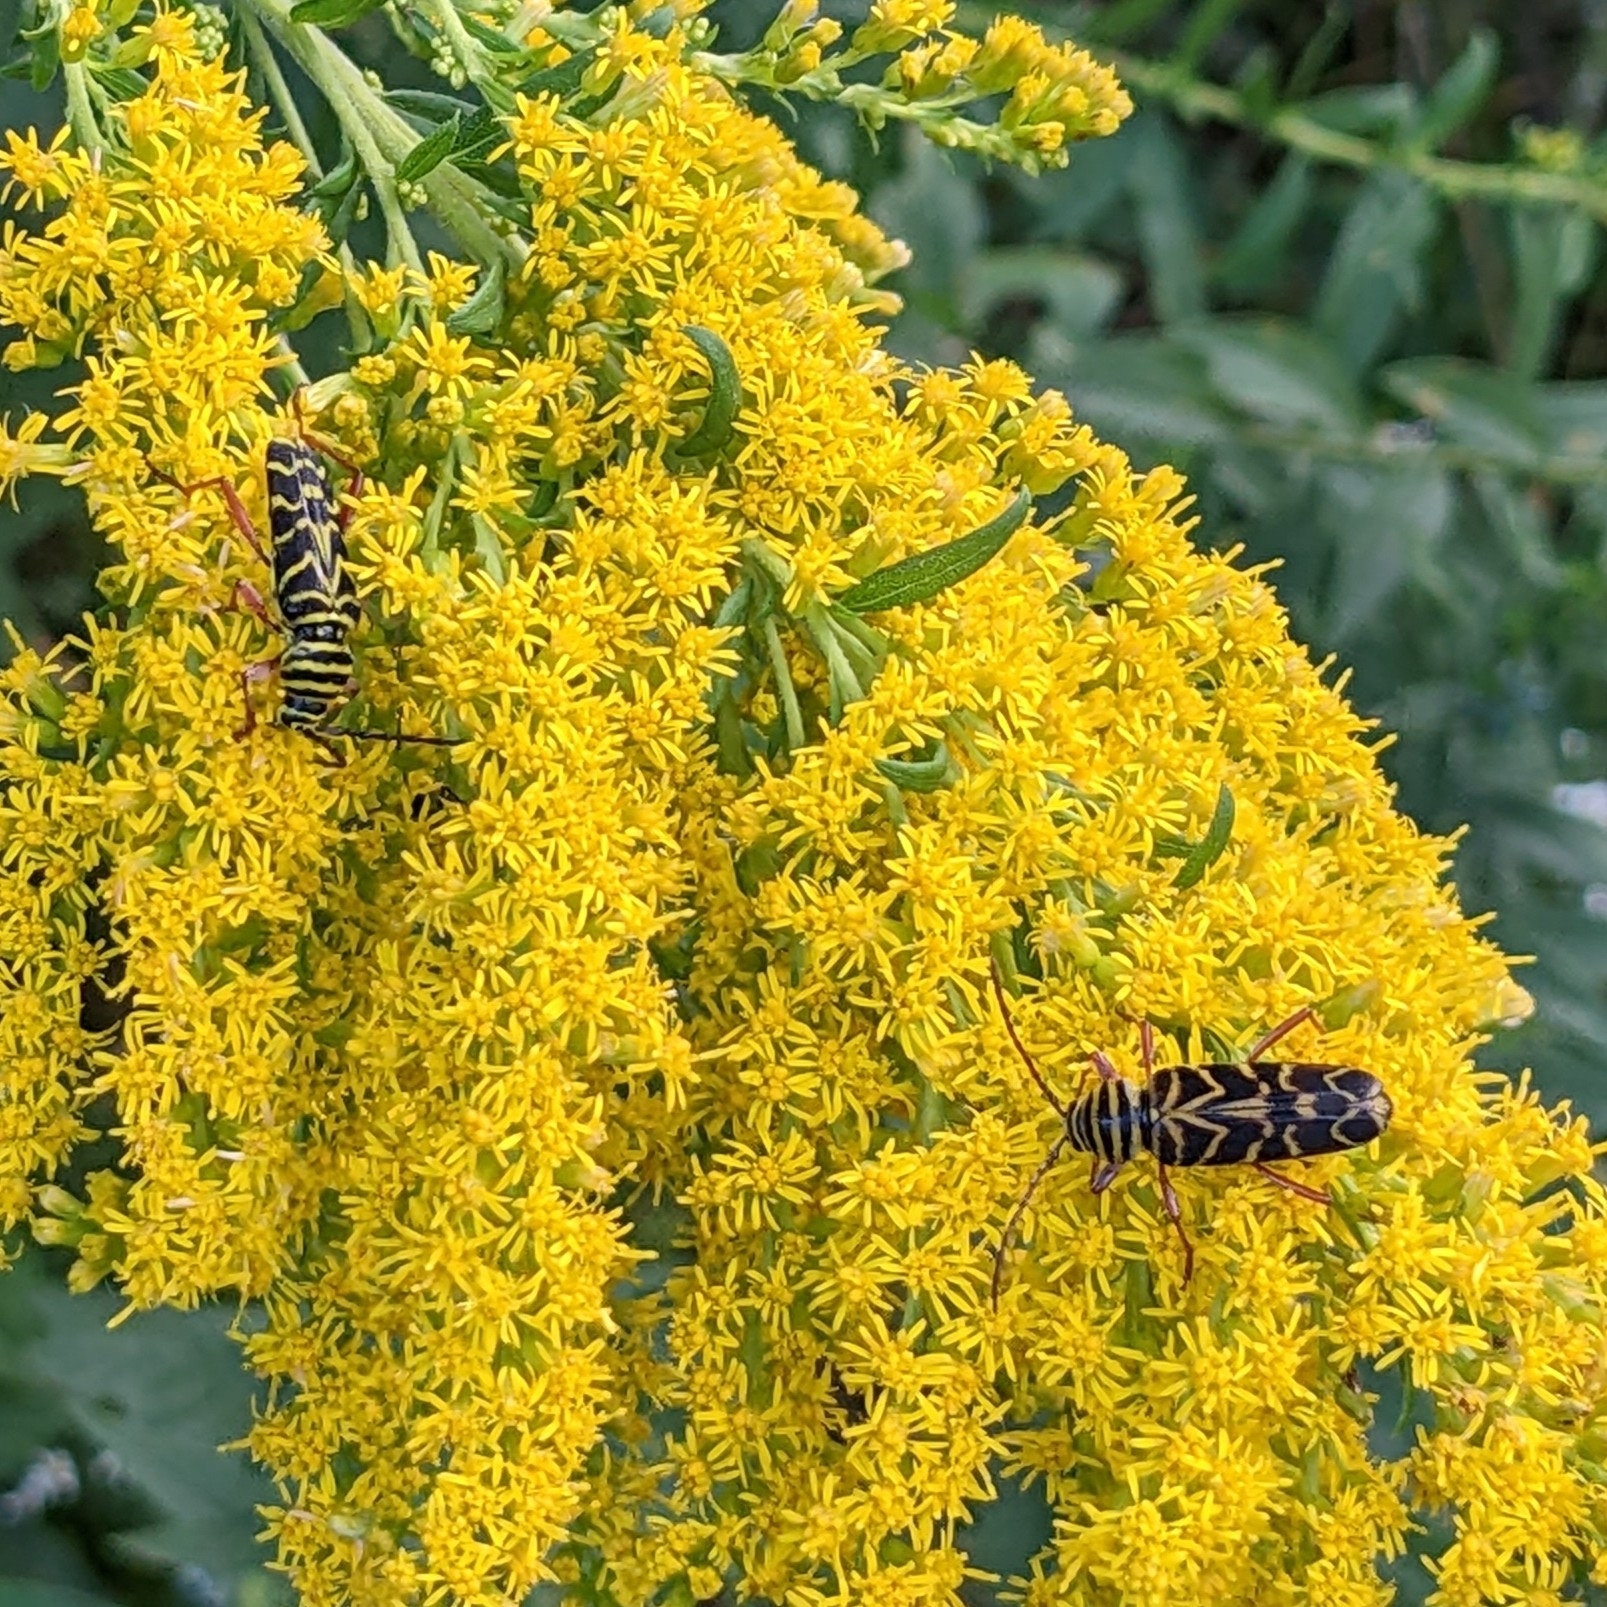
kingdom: Animalia
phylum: Arthropoda
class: Insecta
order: Coleoptera
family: Cerambycidae
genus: Megacyllene
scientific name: Megacyllene robiniae
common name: Locust borer
